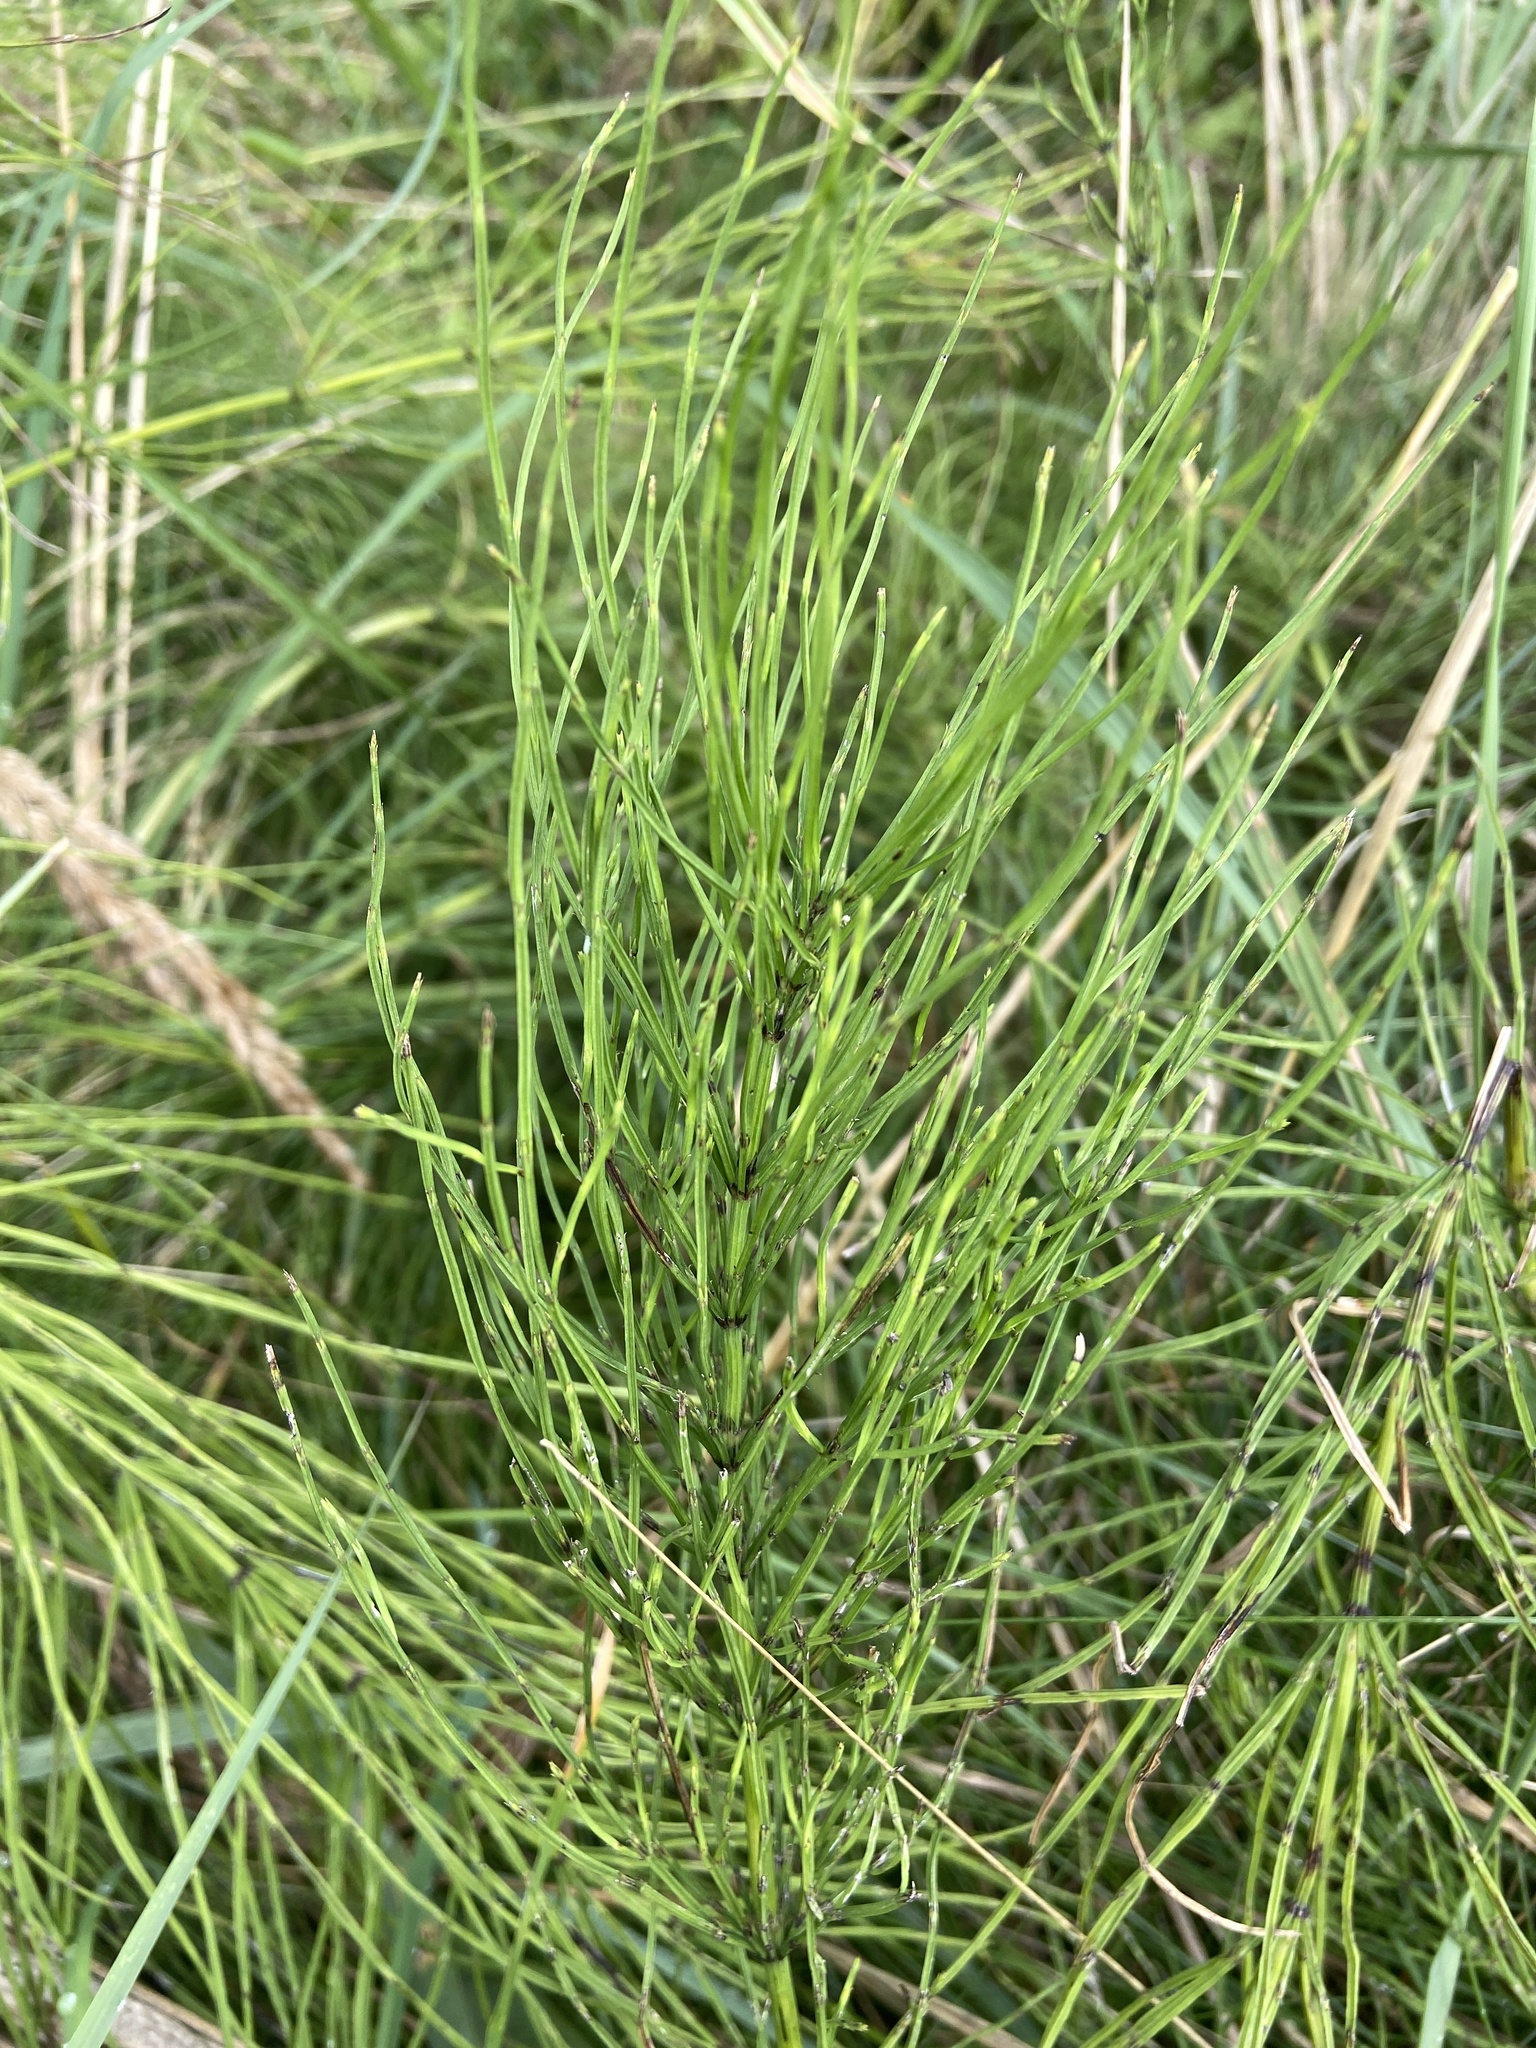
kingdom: Plantae
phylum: Tracheophyta
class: Polypodiopsida
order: Equisetales
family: Equisetaceae
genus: Equisetum
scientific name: Equisetum arvense
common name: Field horsetail
